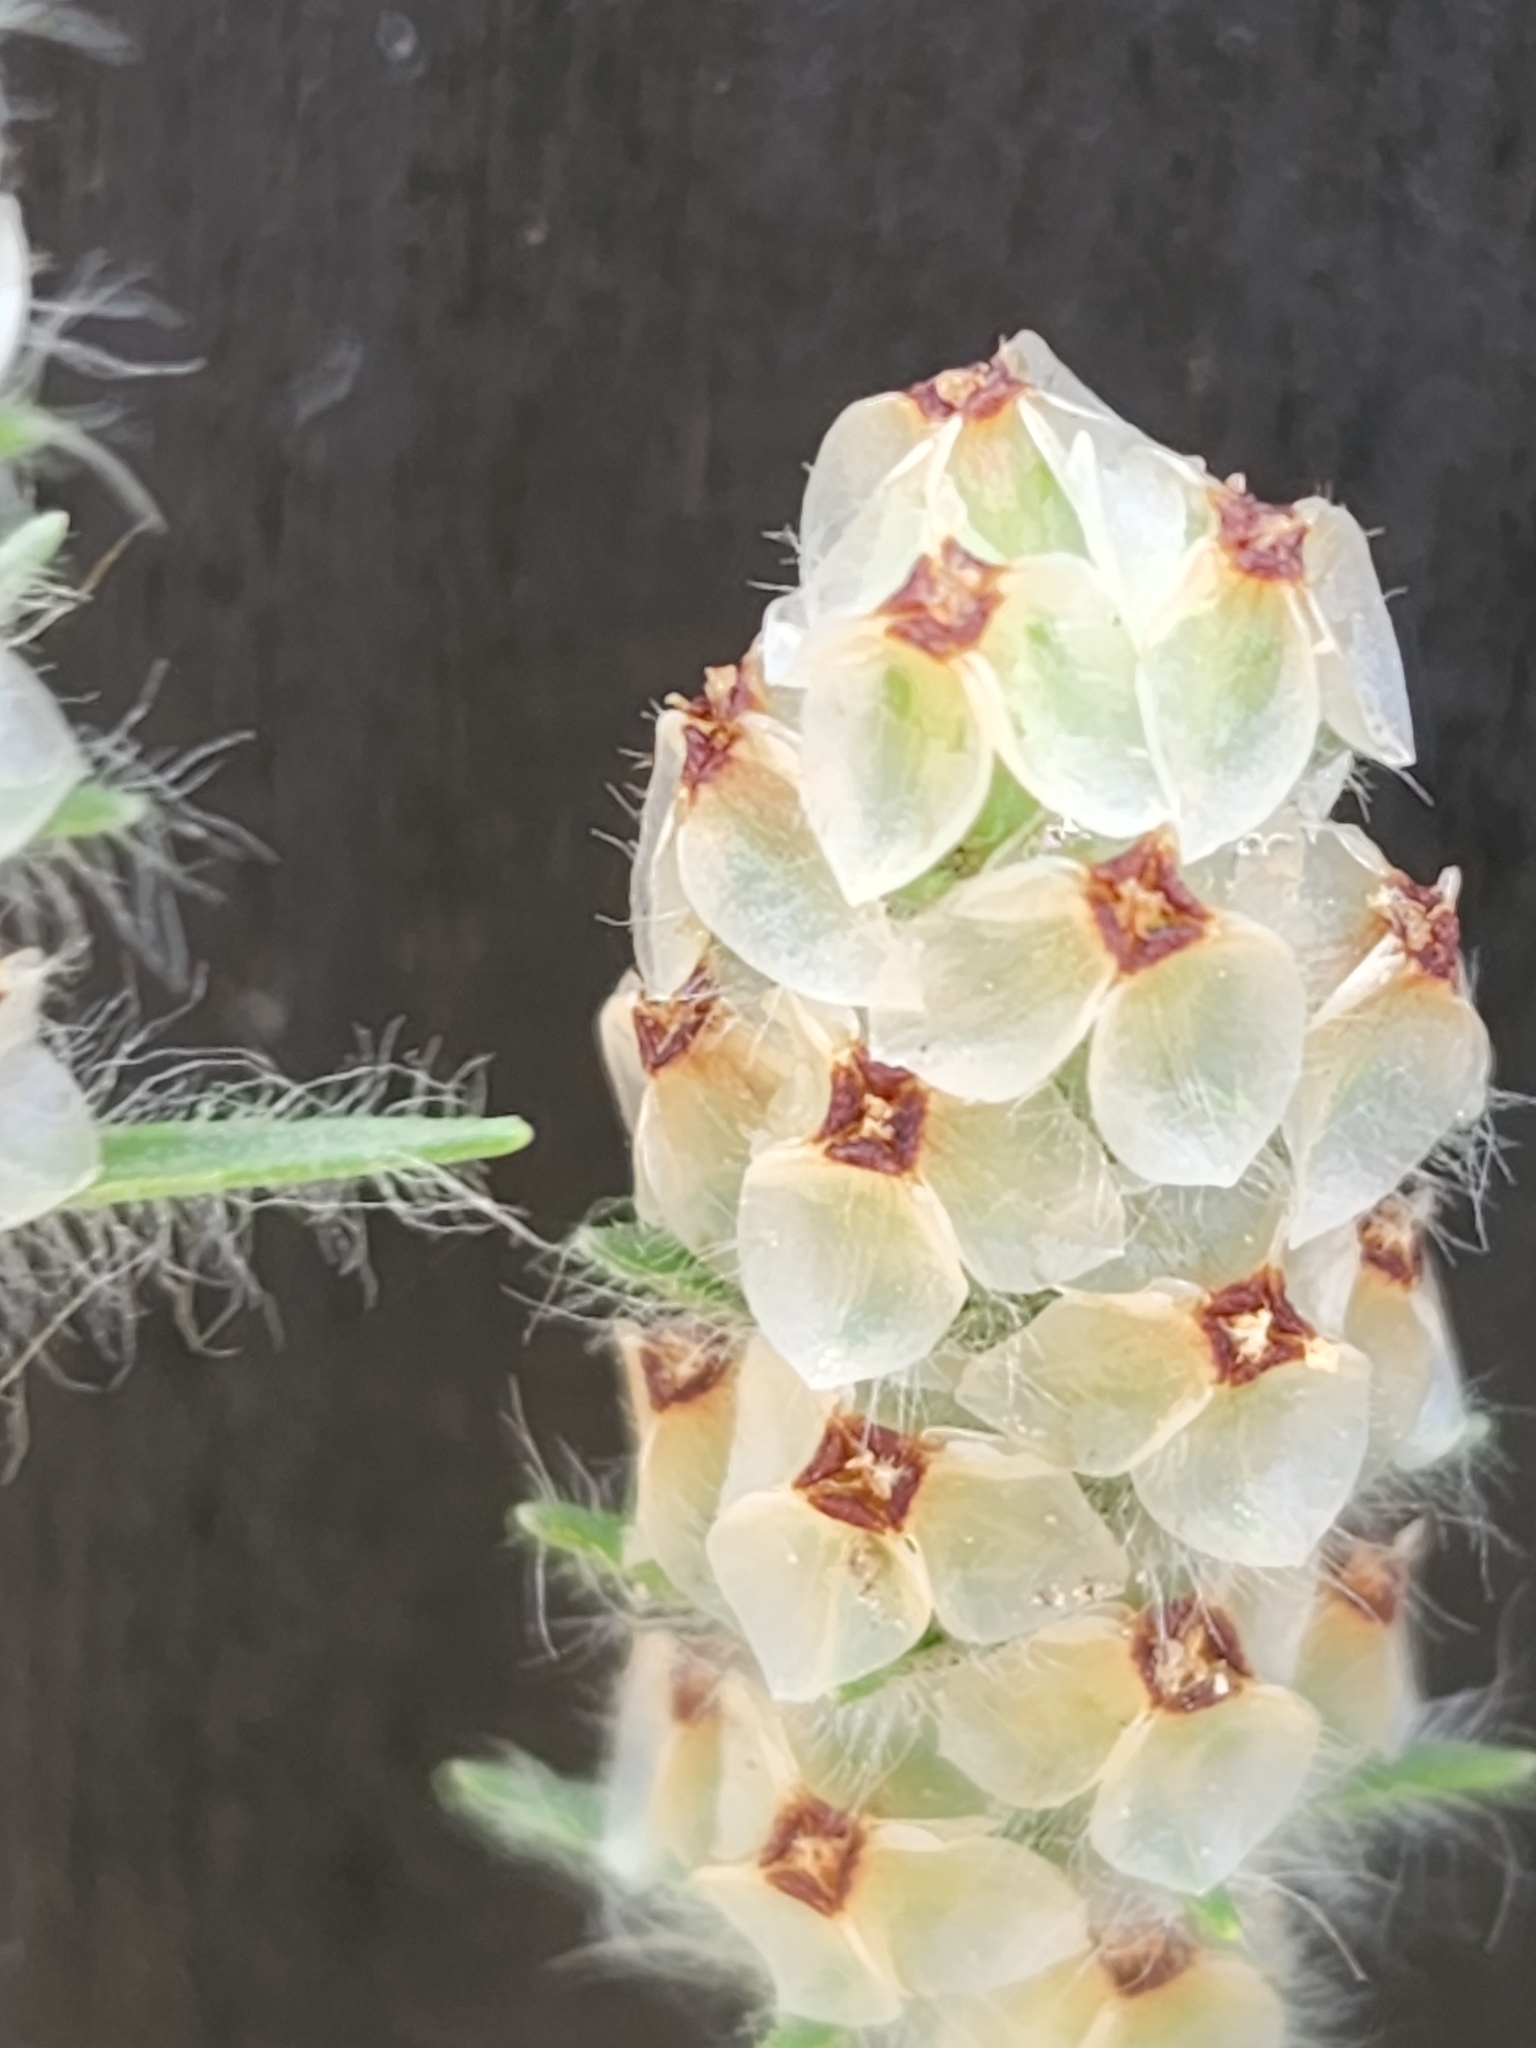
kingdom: Plantae
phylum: Tracheophyta
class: Magnoliopsida
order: Lamiales
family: Plantaginaceae
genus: Plantago
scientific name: Plantago helleri
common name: Heller's plantain
